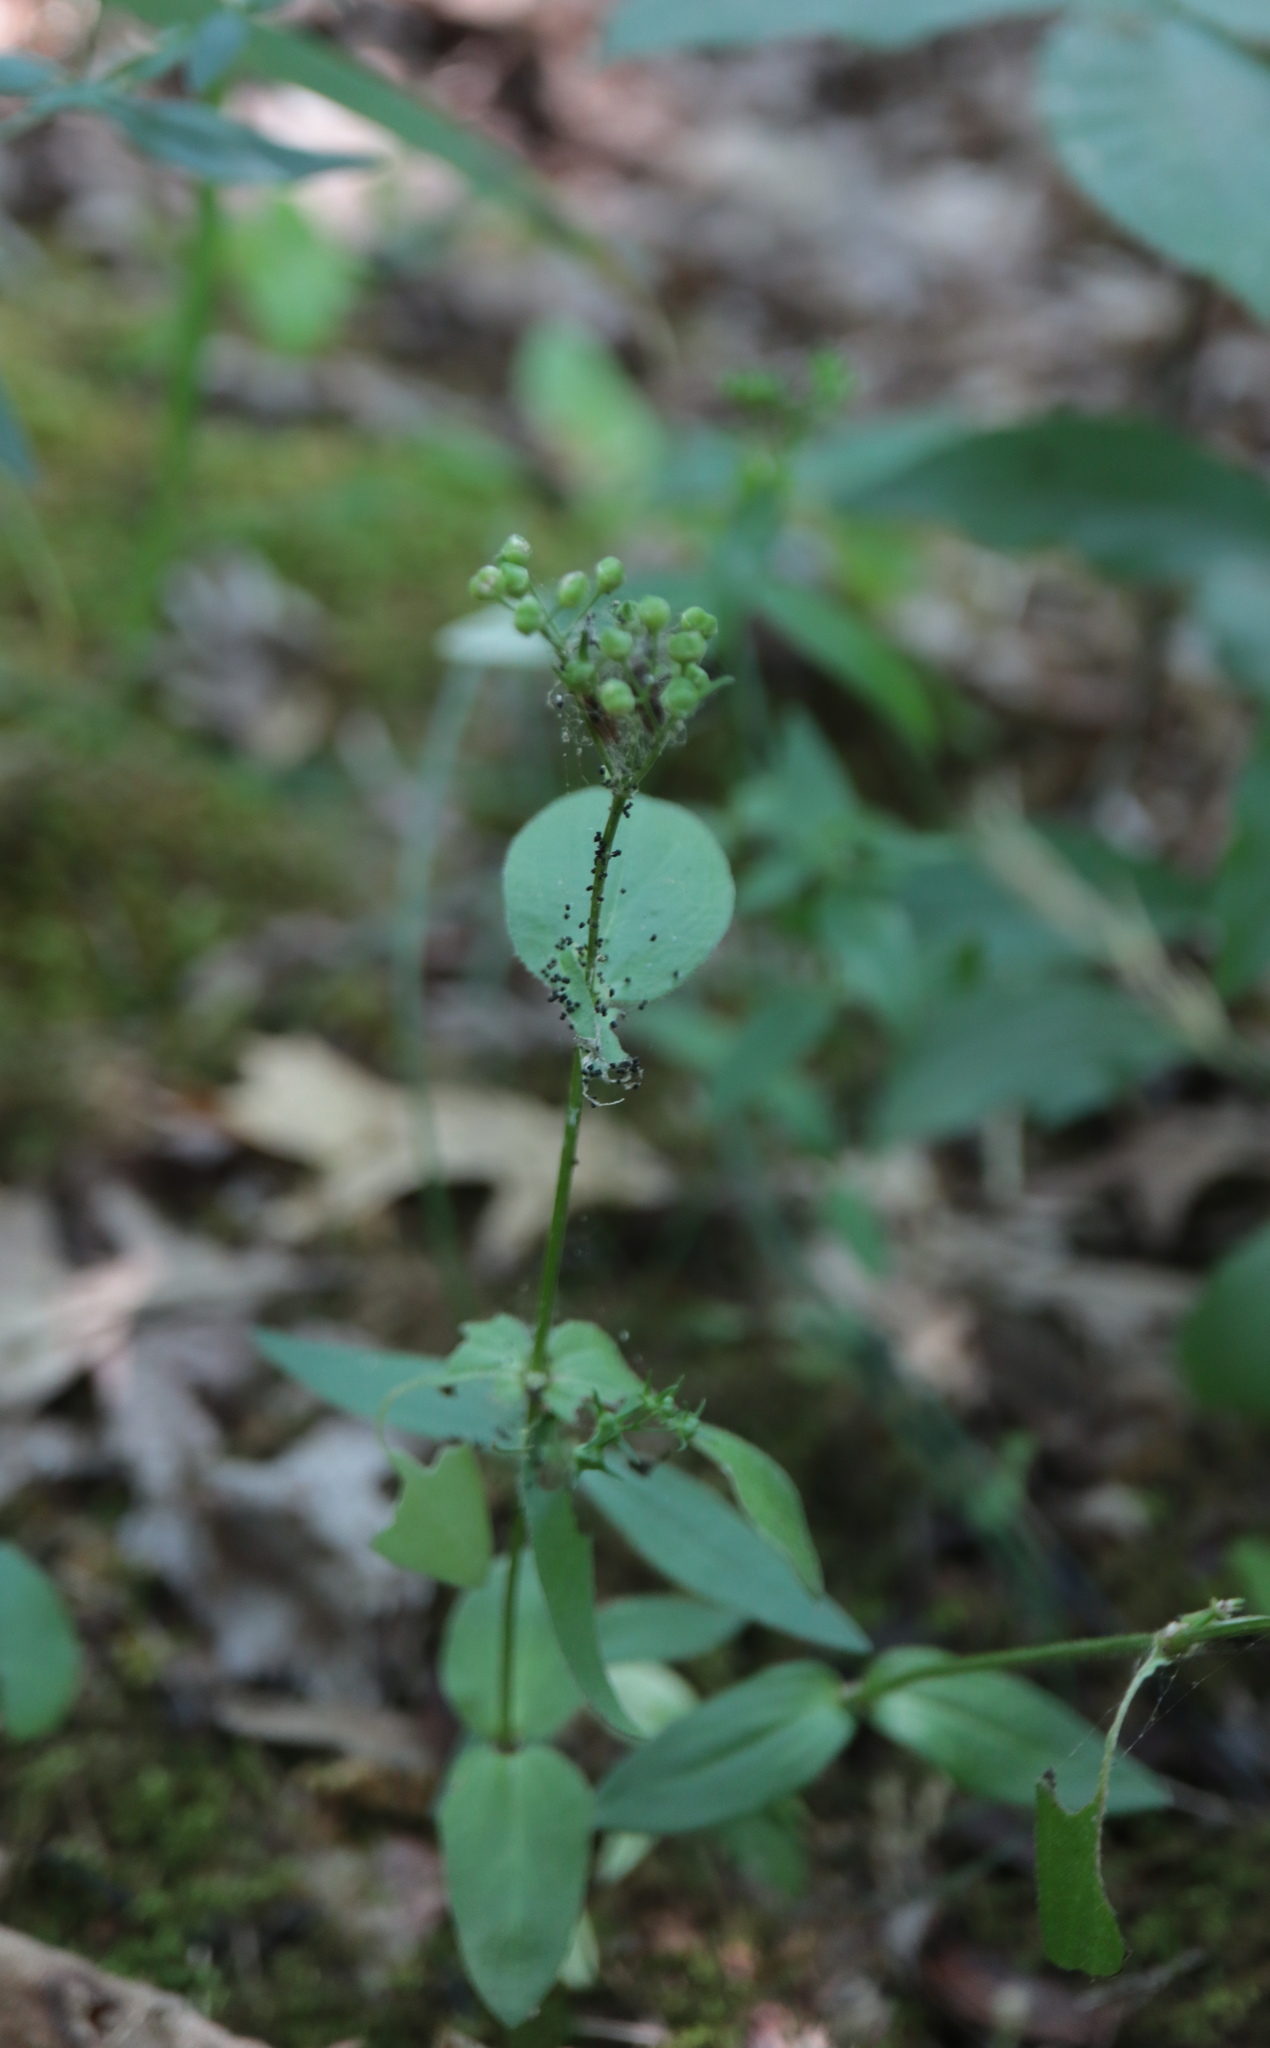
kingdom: Plantae
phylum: Tracheophyta
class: Magnoliopsida
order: Gentianales
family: Rubiaceae
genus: Houstonia
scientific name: Houstonia purpurea
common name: Summer bluet
